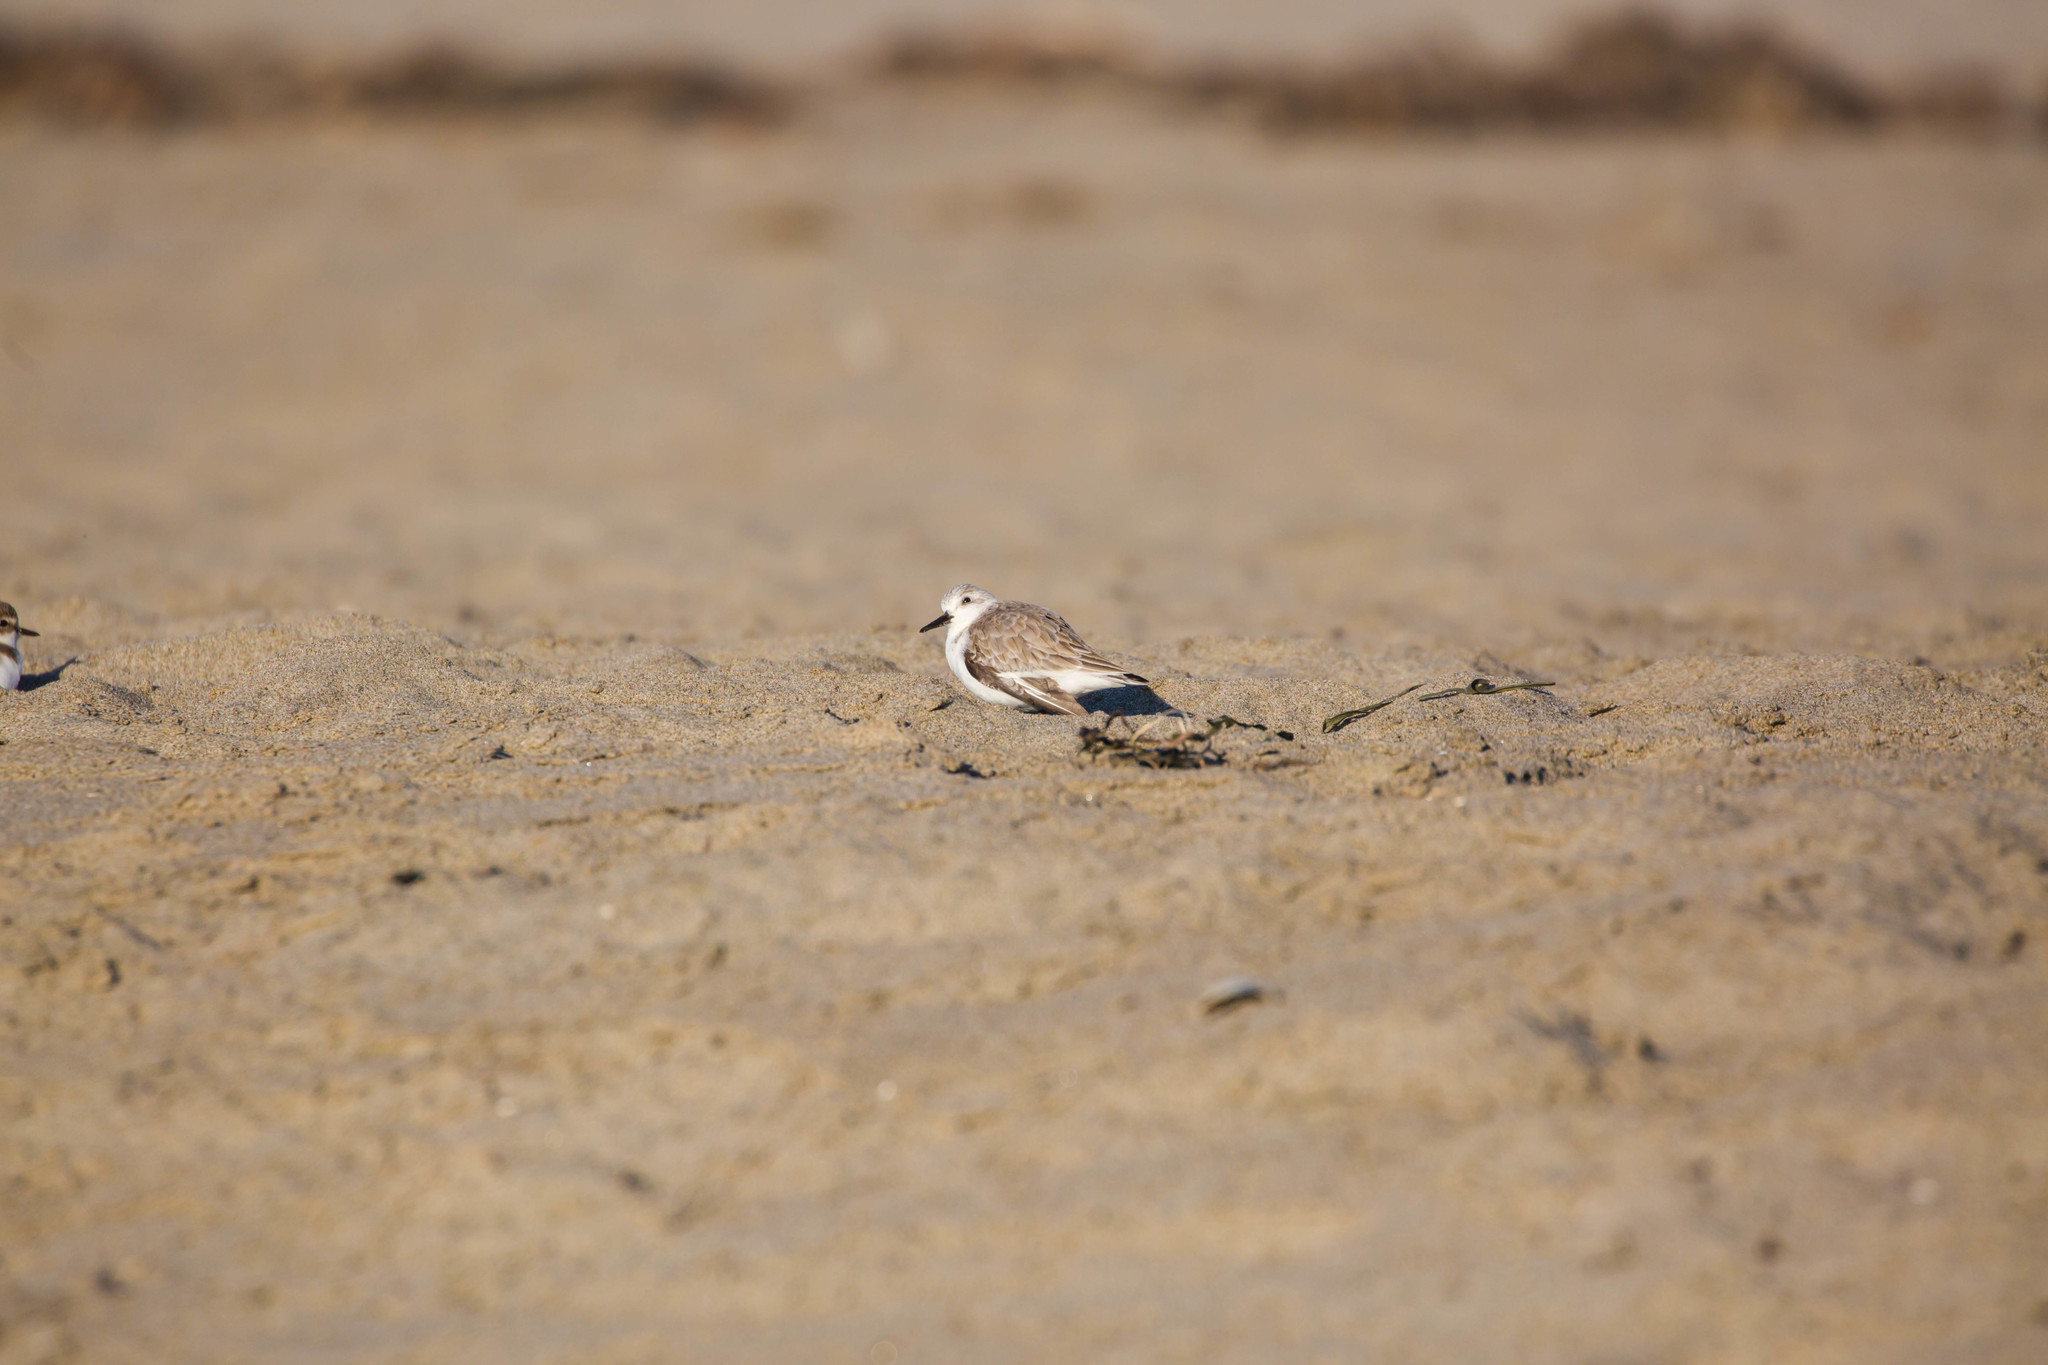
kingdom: Animalia
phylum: Chordata
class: Aves
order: Charadriiformes
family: Scolopacidae
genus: Calidris
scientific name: Calidris alba
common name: Sanderling
